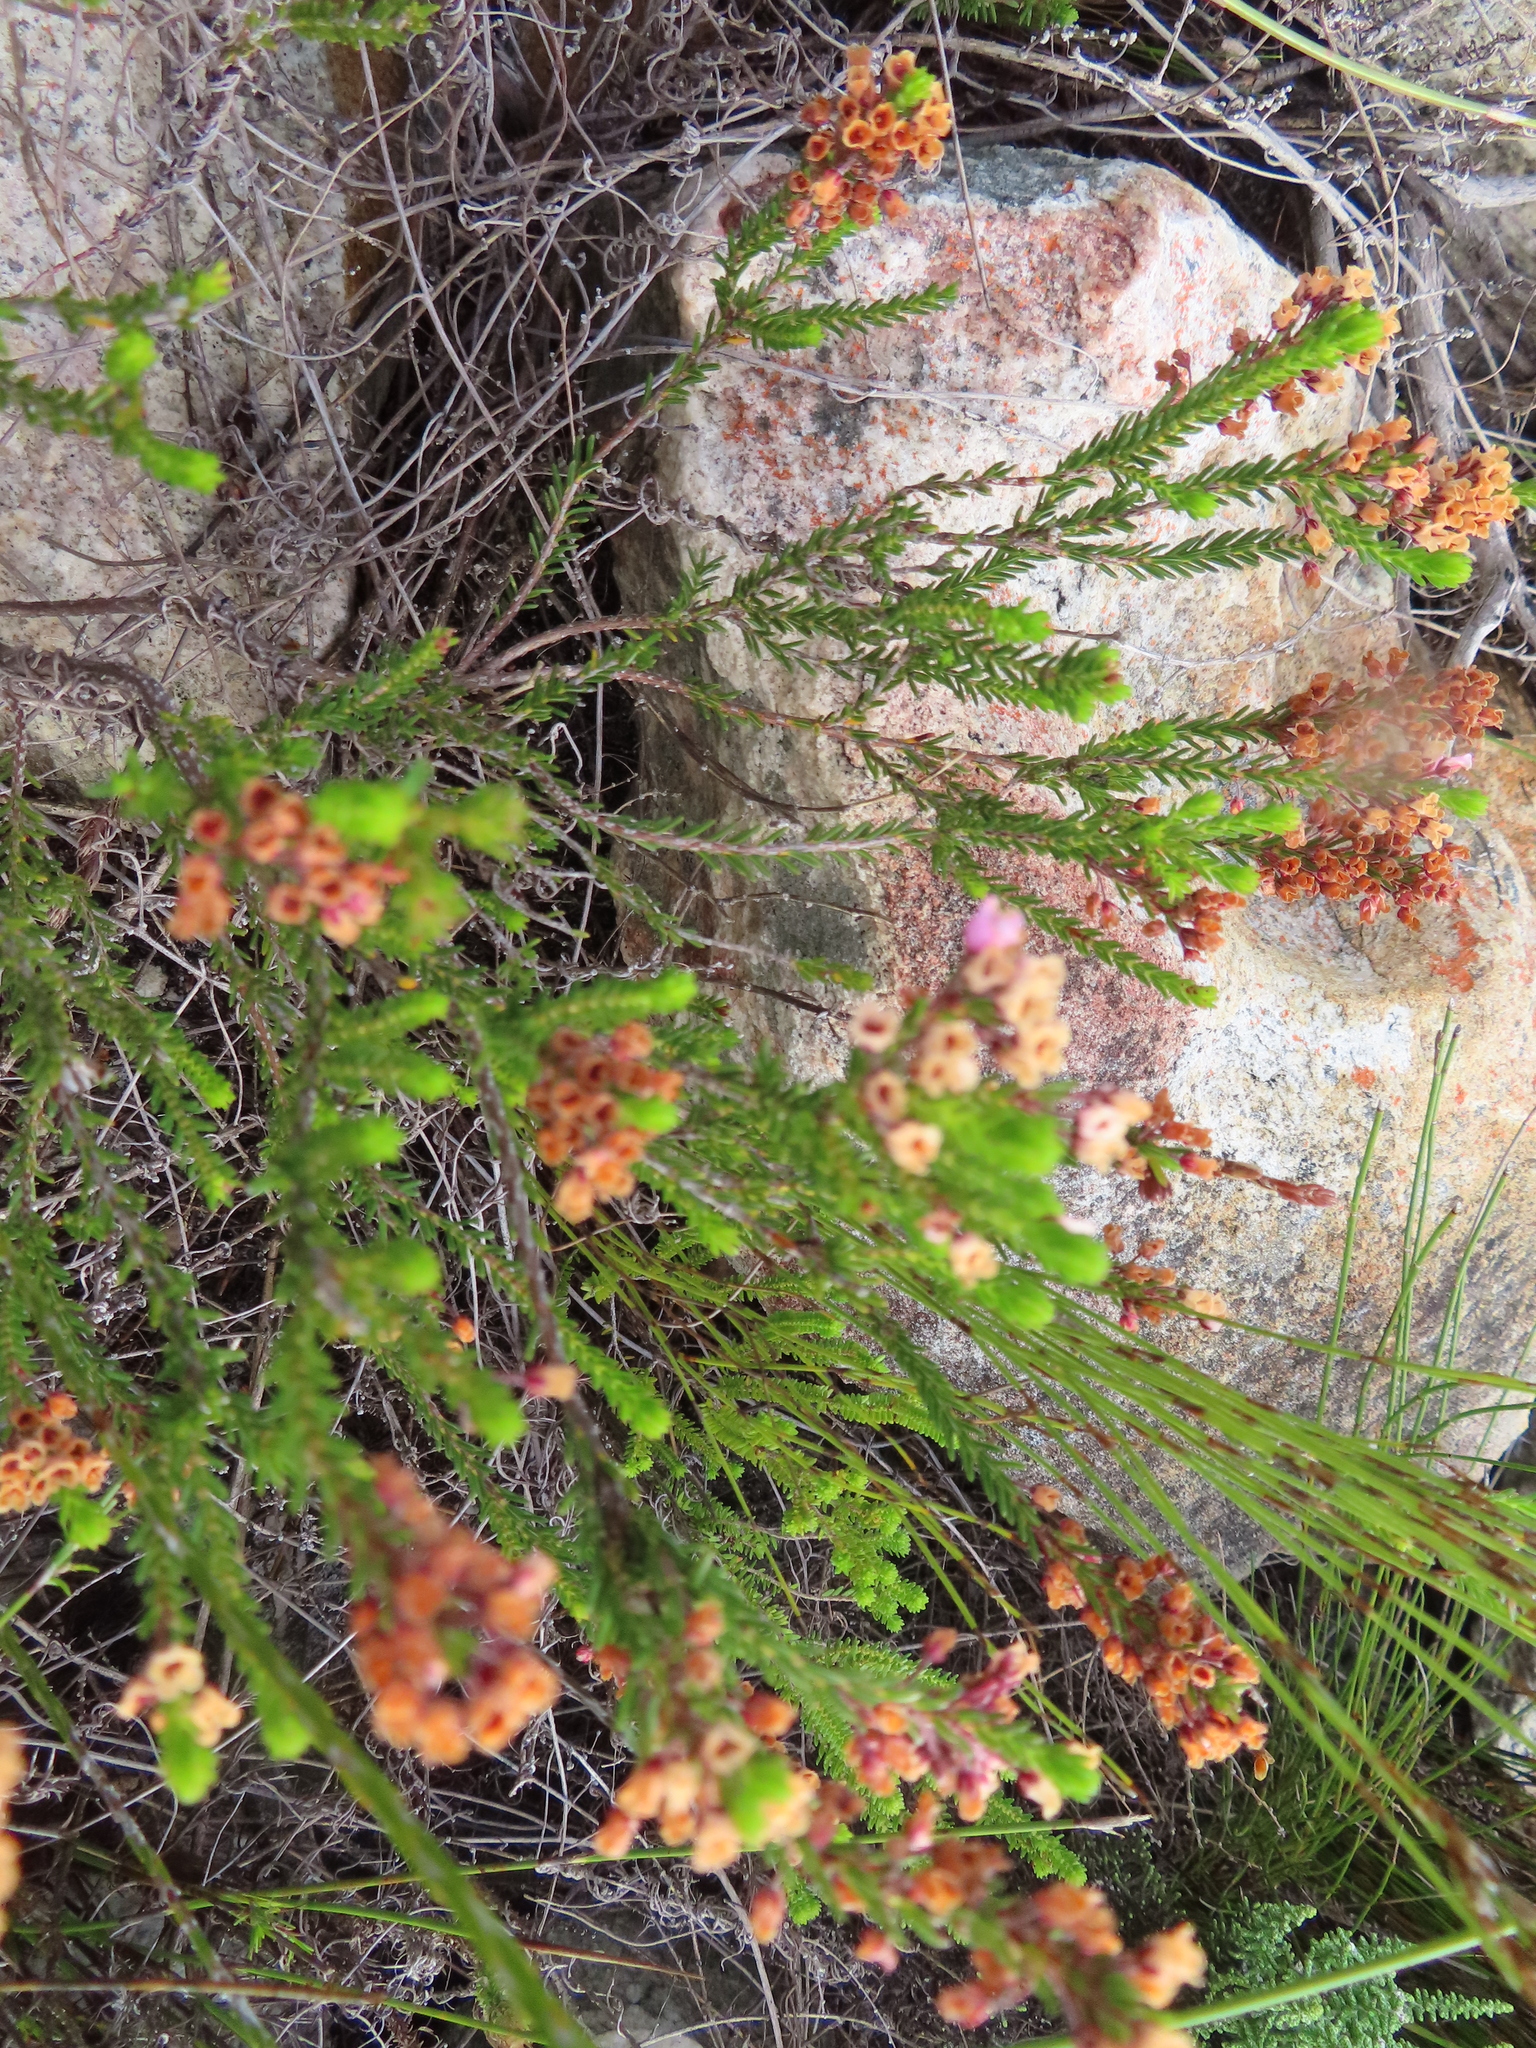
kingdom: Plantae
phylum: Tracheophyta
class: Magnoliopsida
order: Ericales
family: Ericaceae
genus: Erica
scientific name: Erica pulchella
